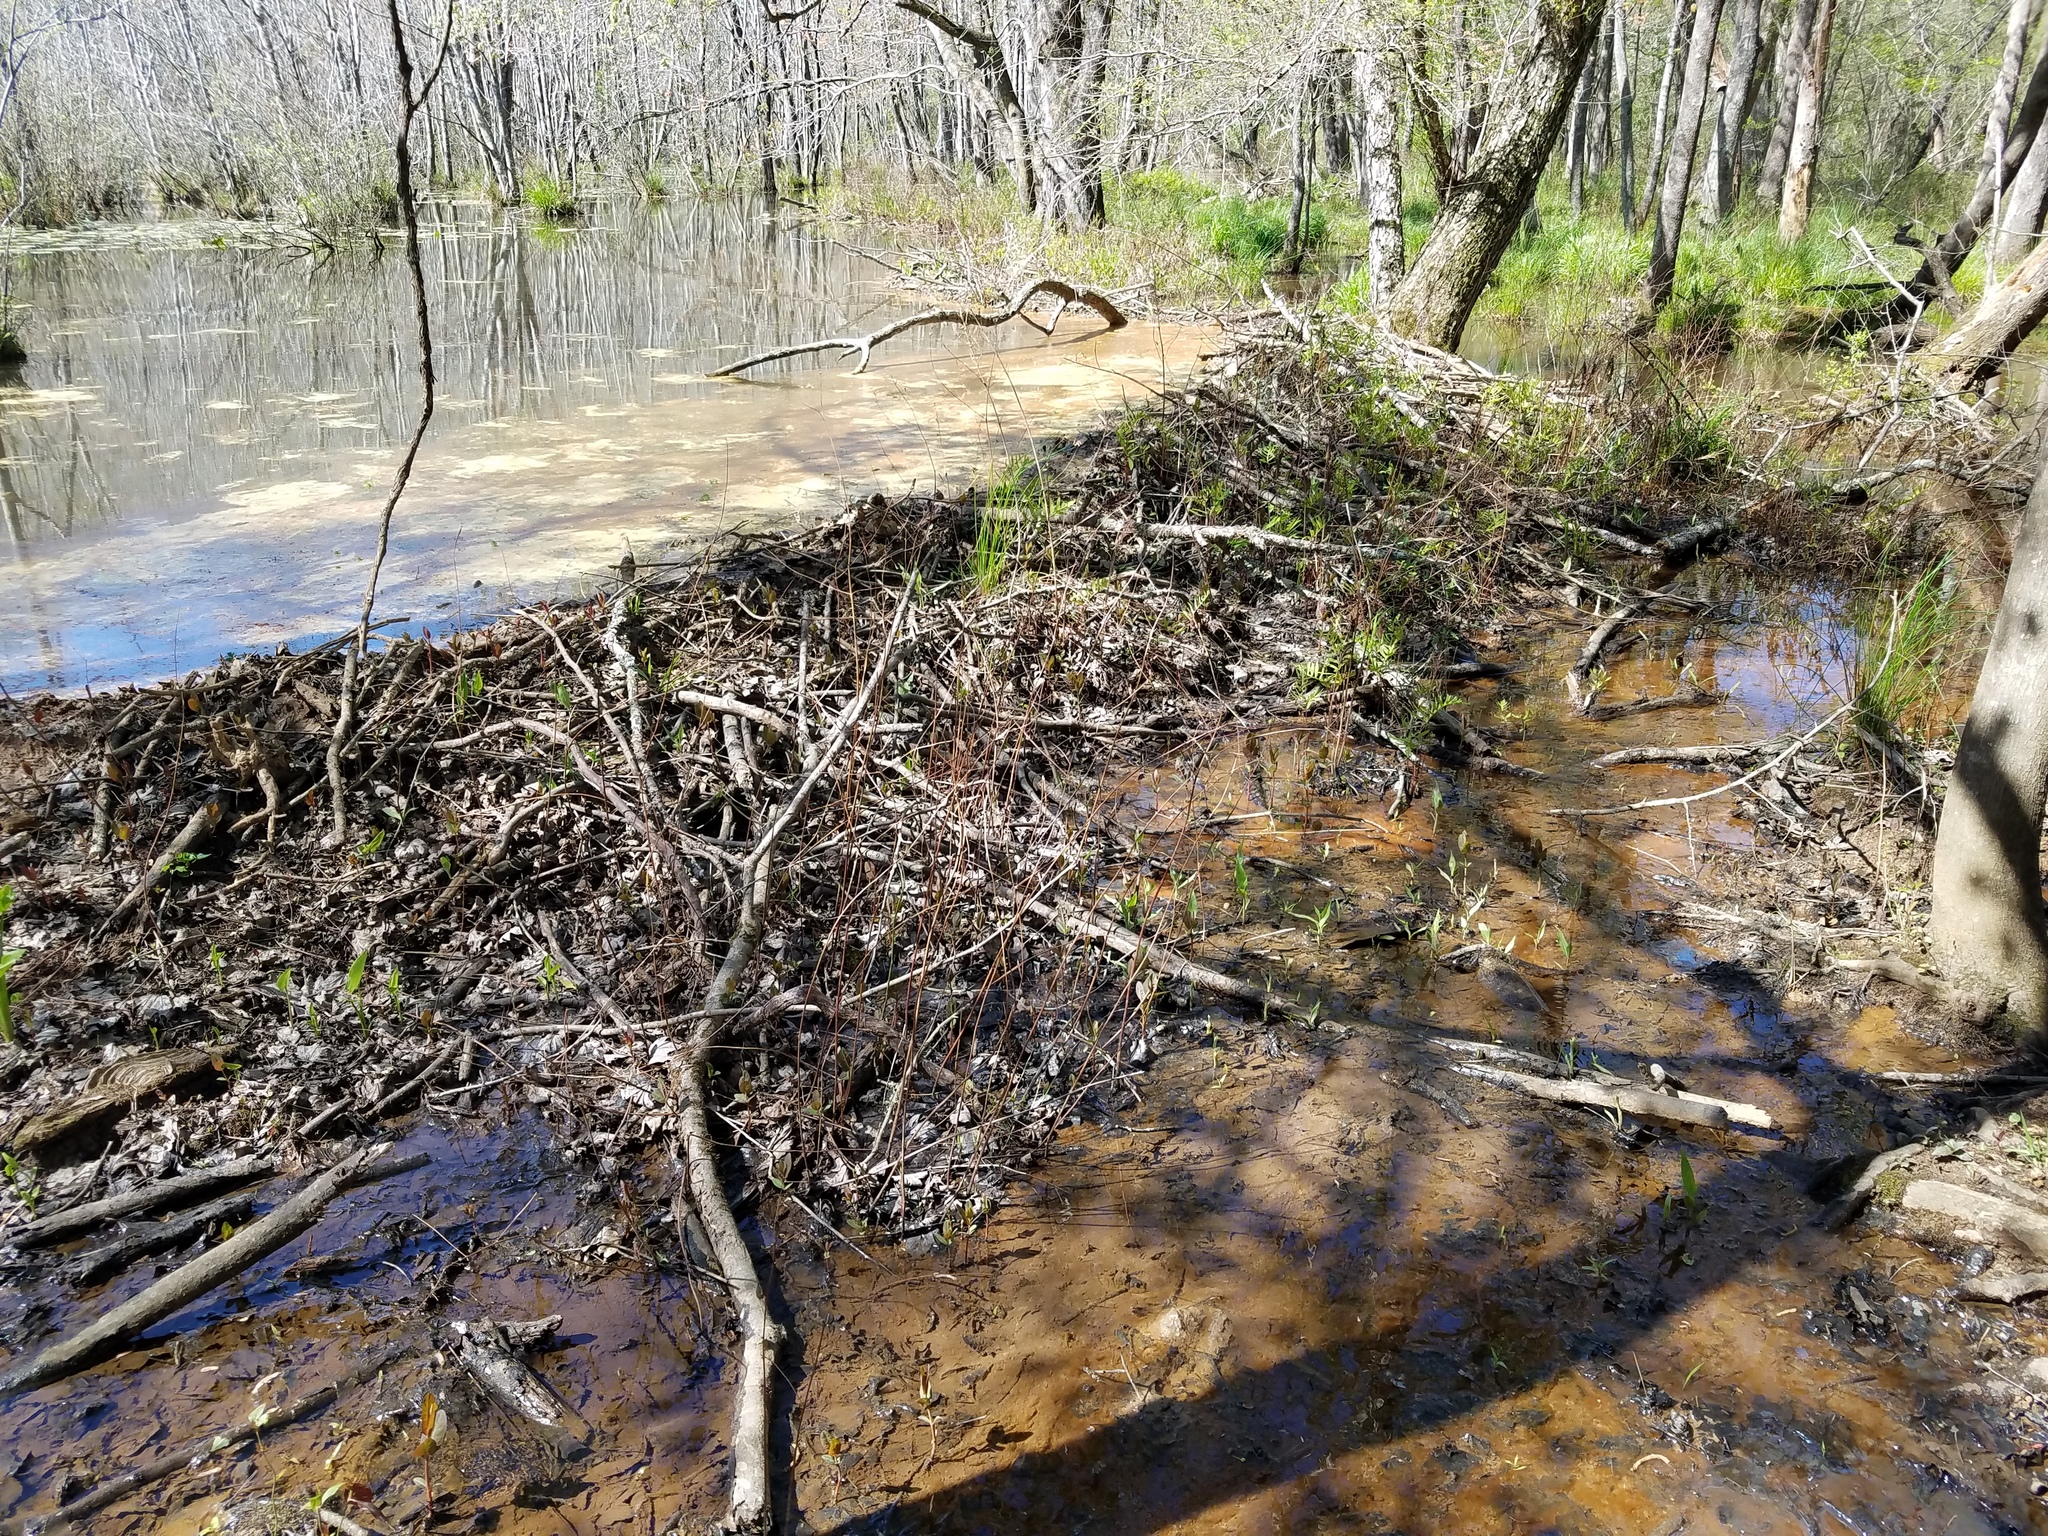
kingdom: Animalia
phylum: Chordata
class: Mammalia
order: Rodentia
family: Castoridae
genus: Castor
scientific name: Castor canadensis
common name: American beaver
